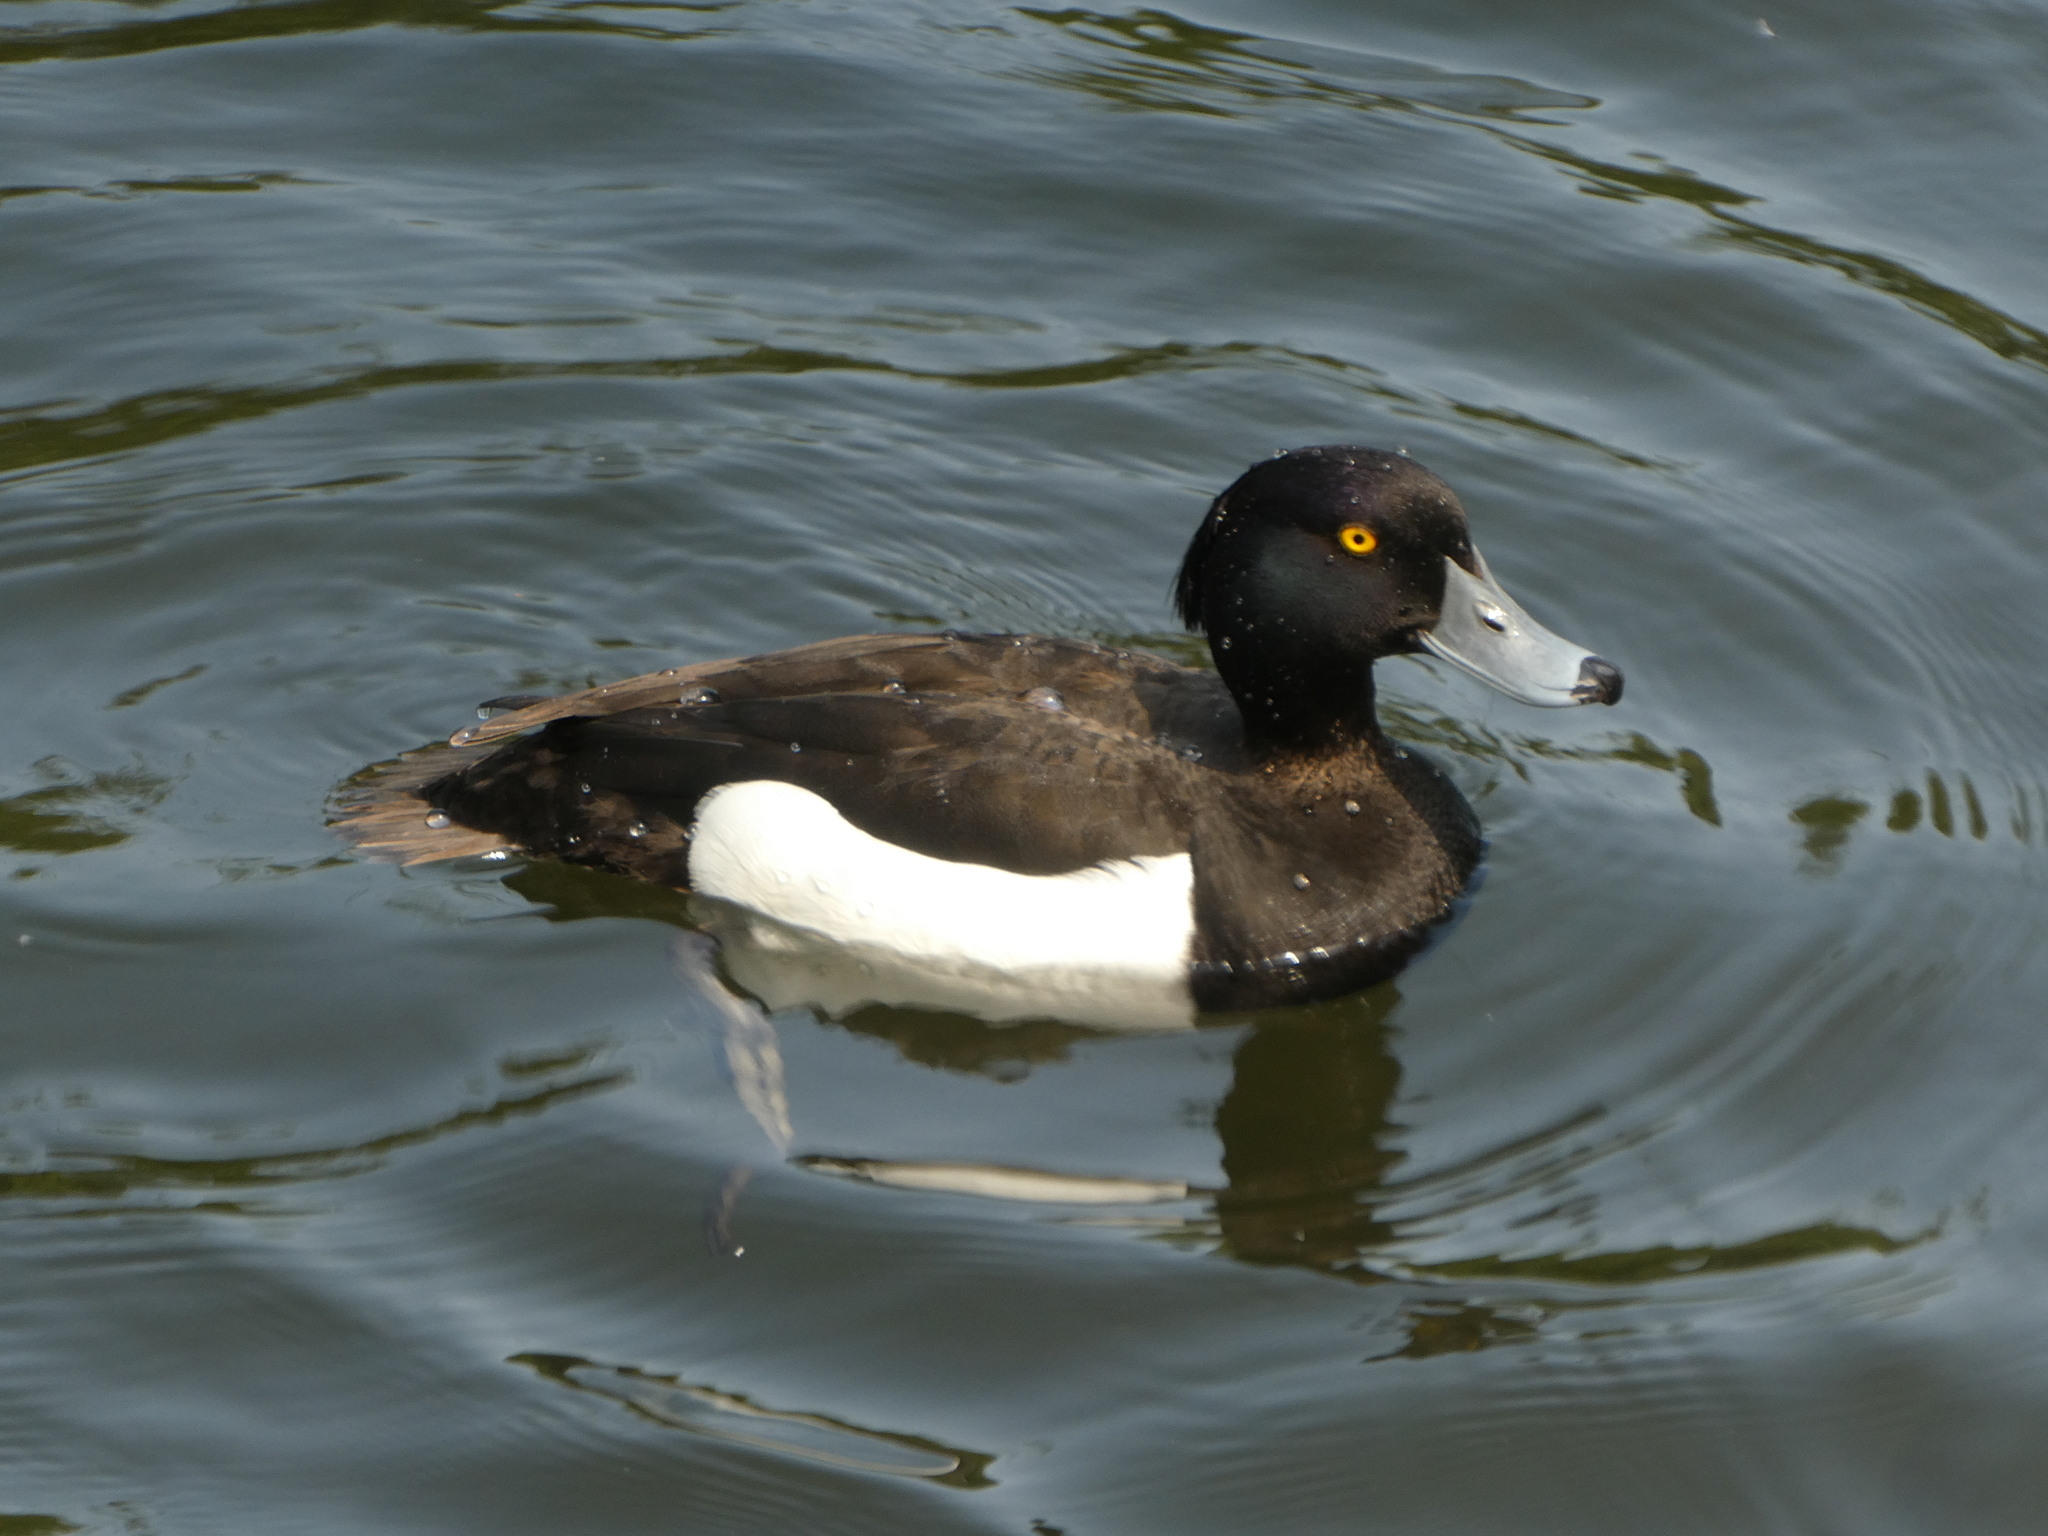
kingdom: Animalia
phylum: Chordata
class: Aves
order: Anseriformes
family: Anatidae
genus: Aythya
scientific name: Aythya fuligula
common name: Tufted duck
